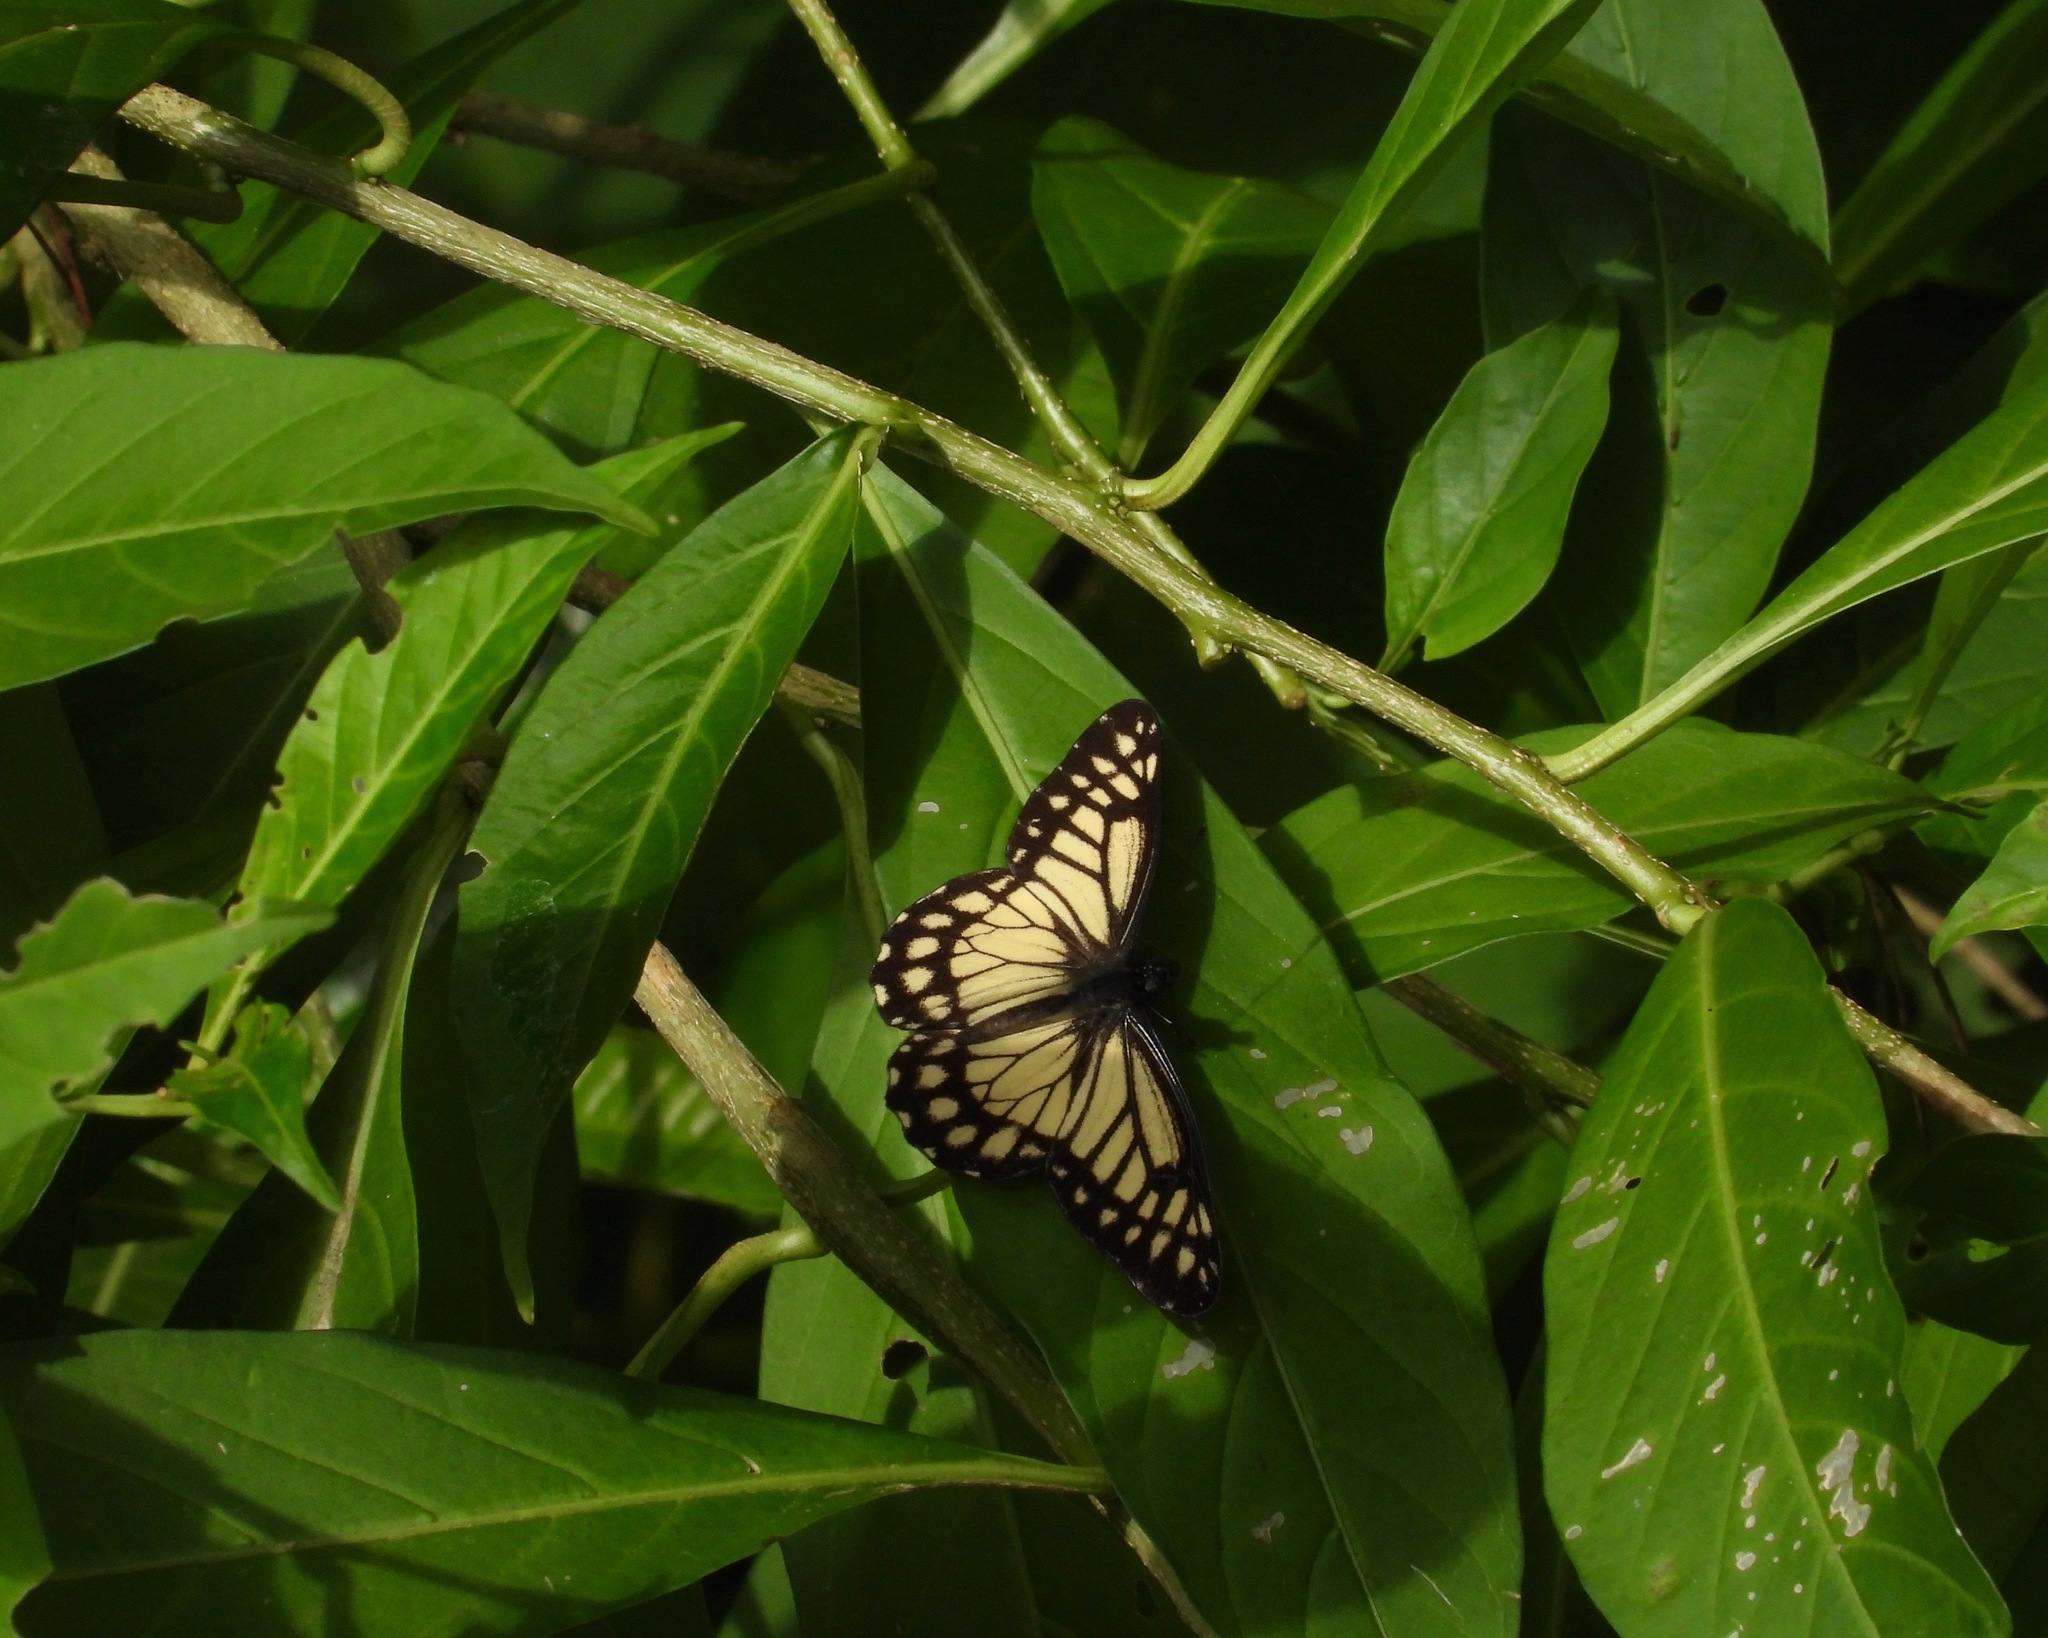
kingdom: Animalia
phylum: Arthropoda
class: Insecta
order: Lepidoptera
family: Pieridae
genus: Archonias
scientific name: Archonias nimbice
